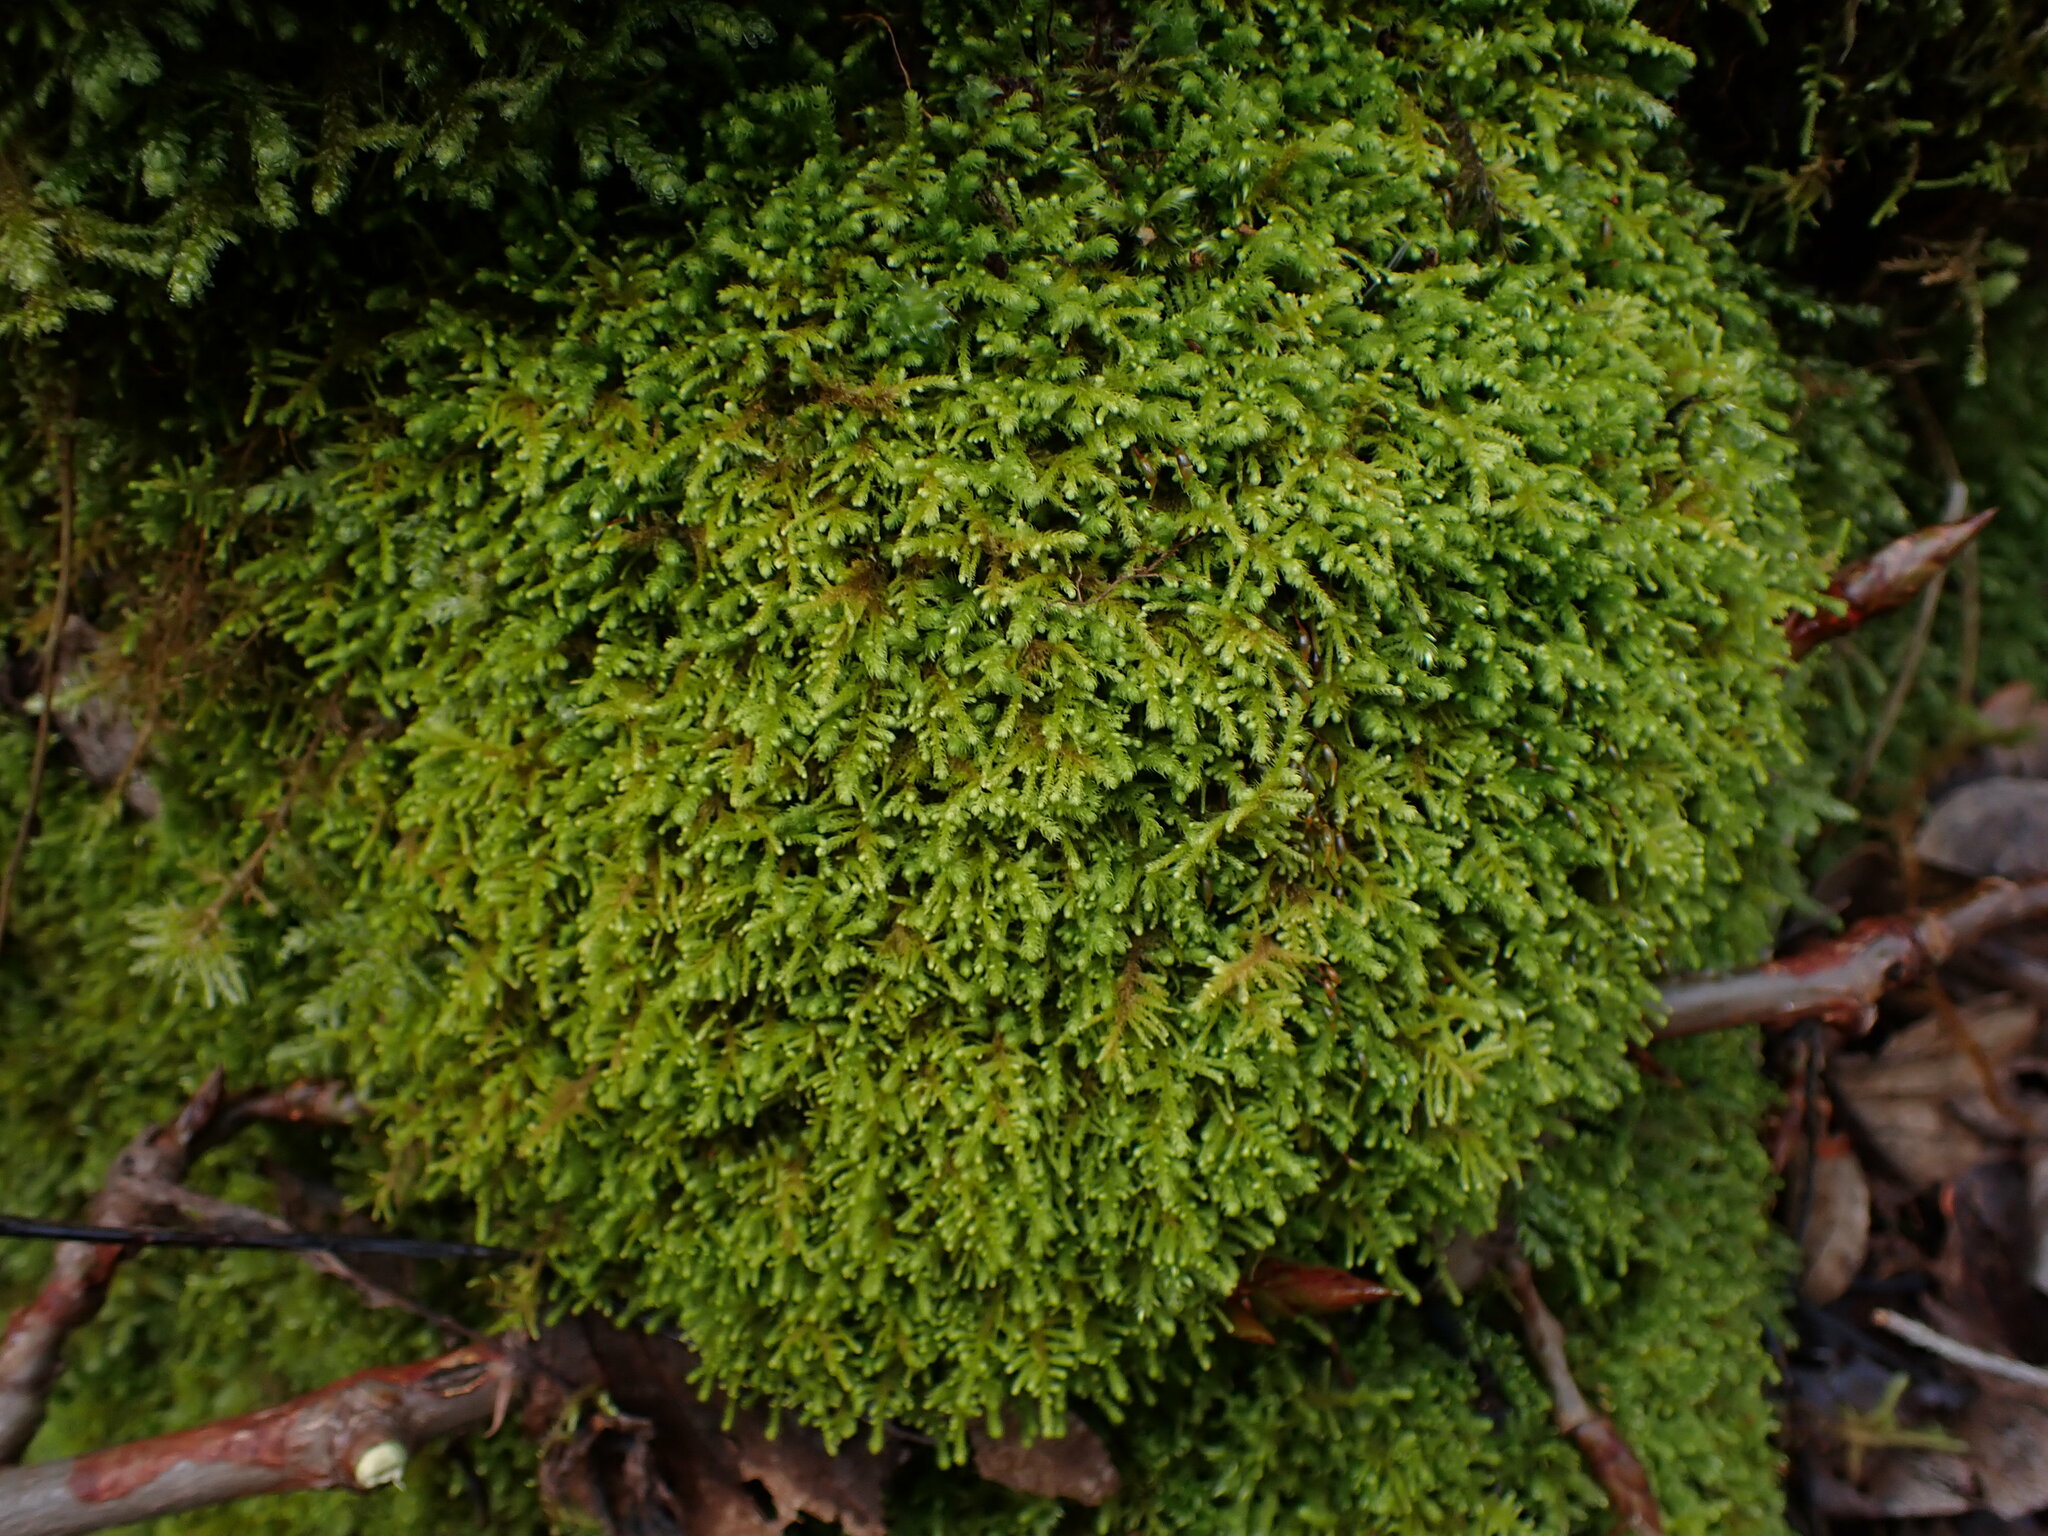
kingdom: Plantae
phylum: Bryophyta
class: Bryopsida
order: Hypnales
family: Brachytheciaceae
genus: Claopodium
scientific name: Claopodium crispifolium
